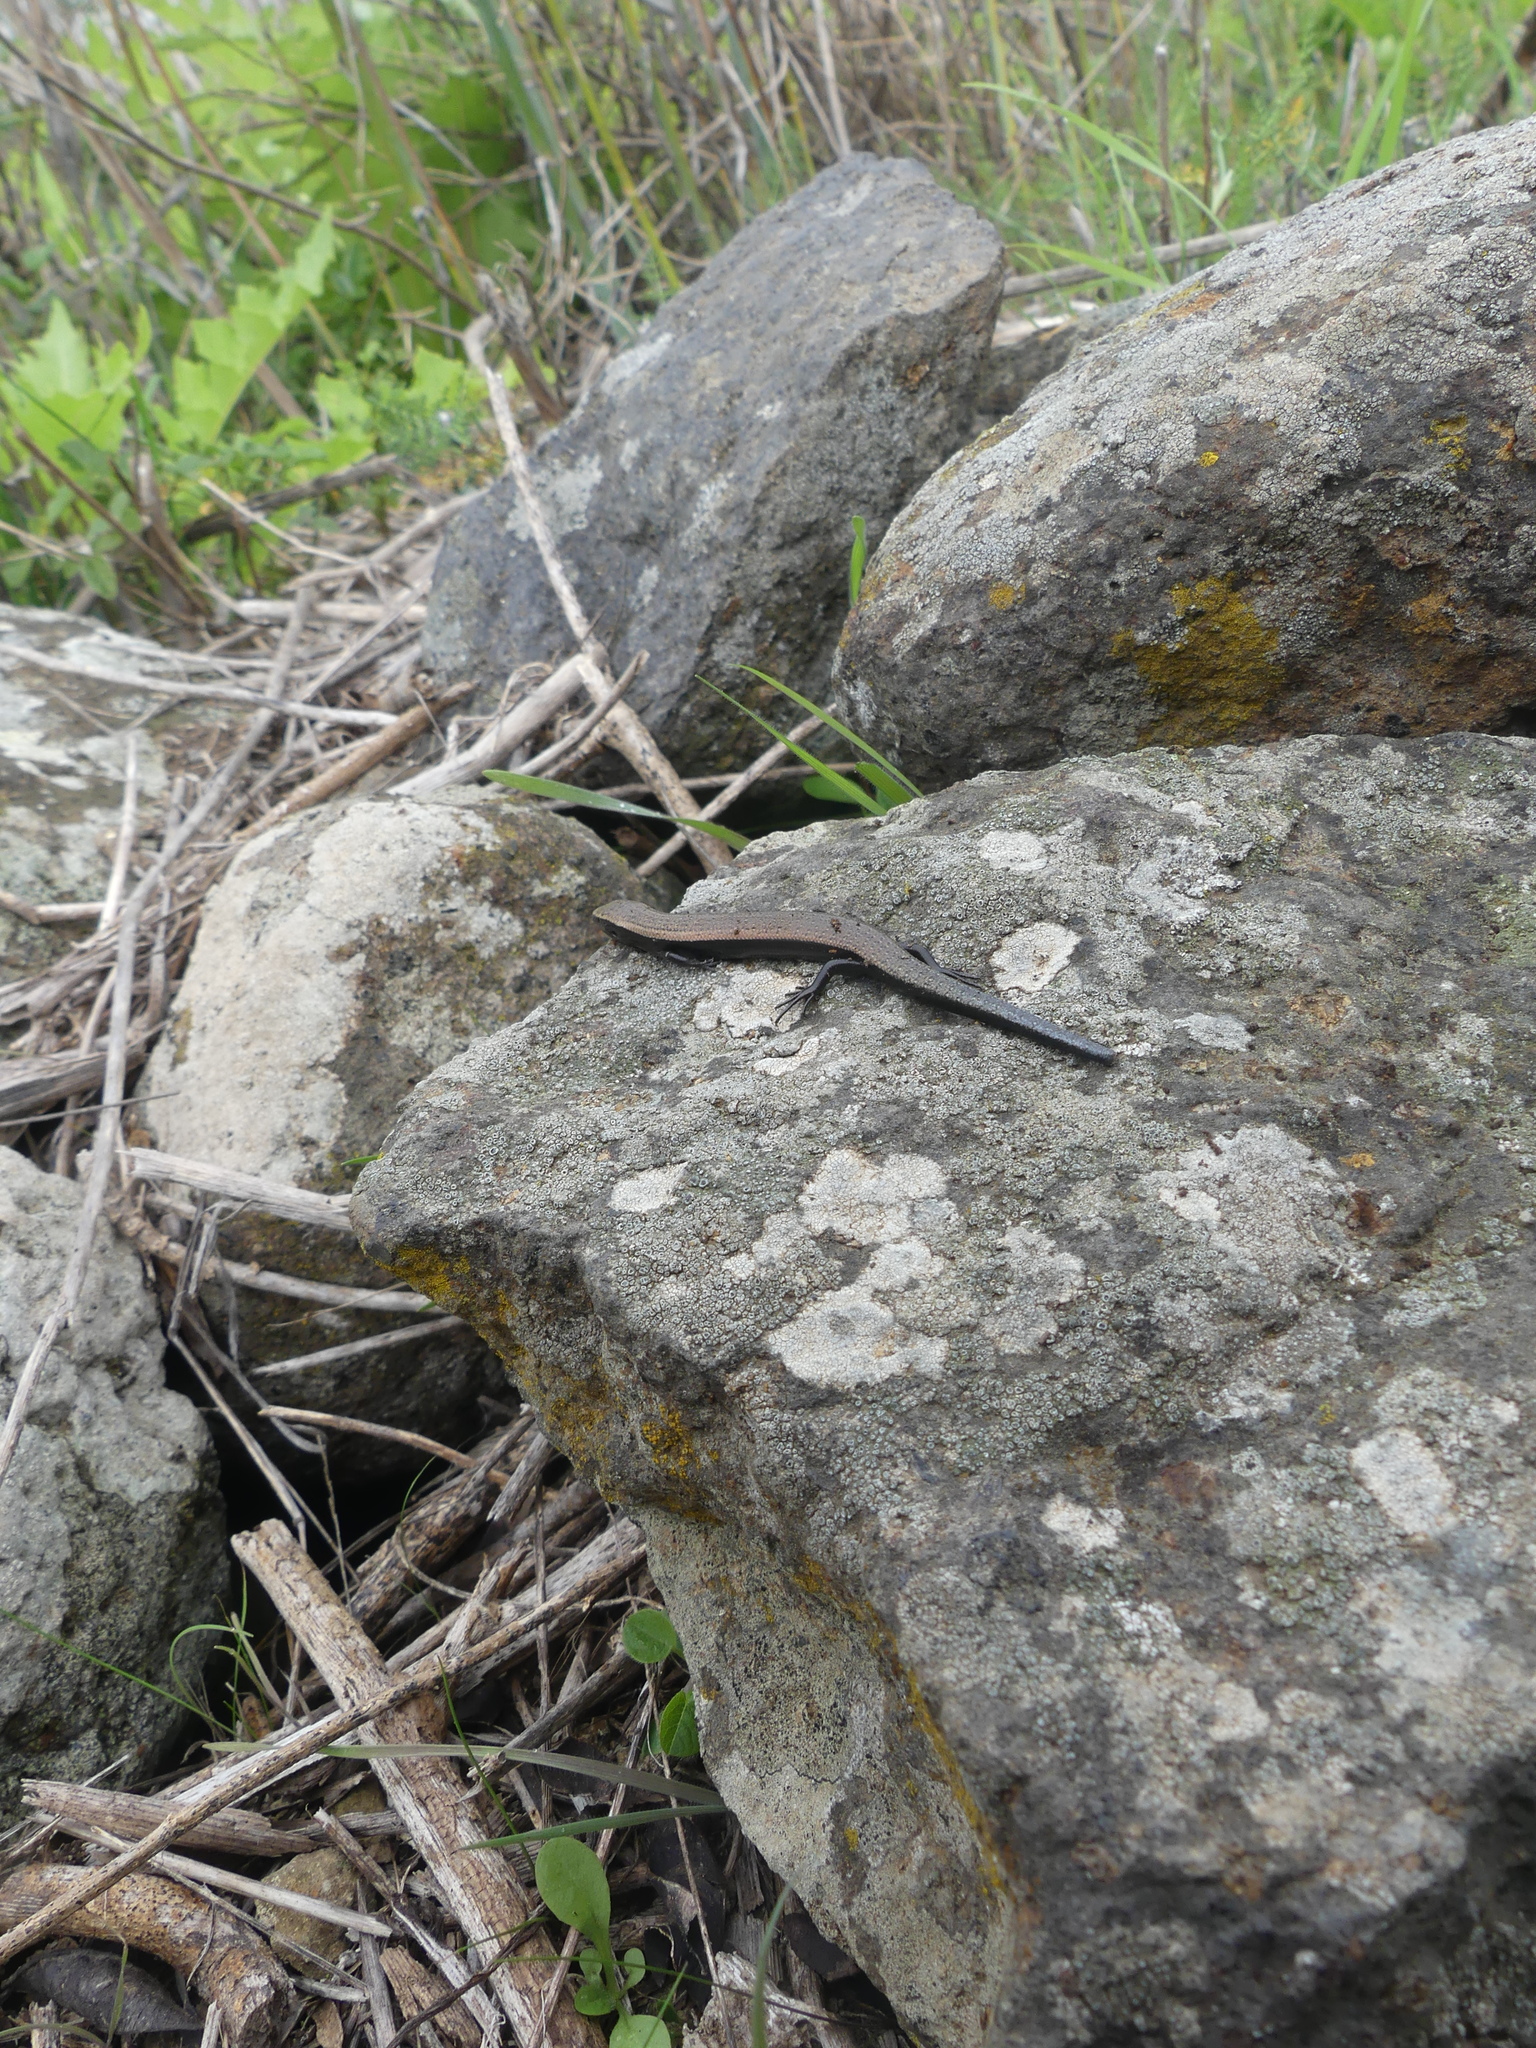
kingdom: Animalia
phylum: Chordata
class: Squamata
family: Scincidae
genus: Chalcides
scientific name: Chalcides viridanus
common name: Canaryan cylindrical skink
